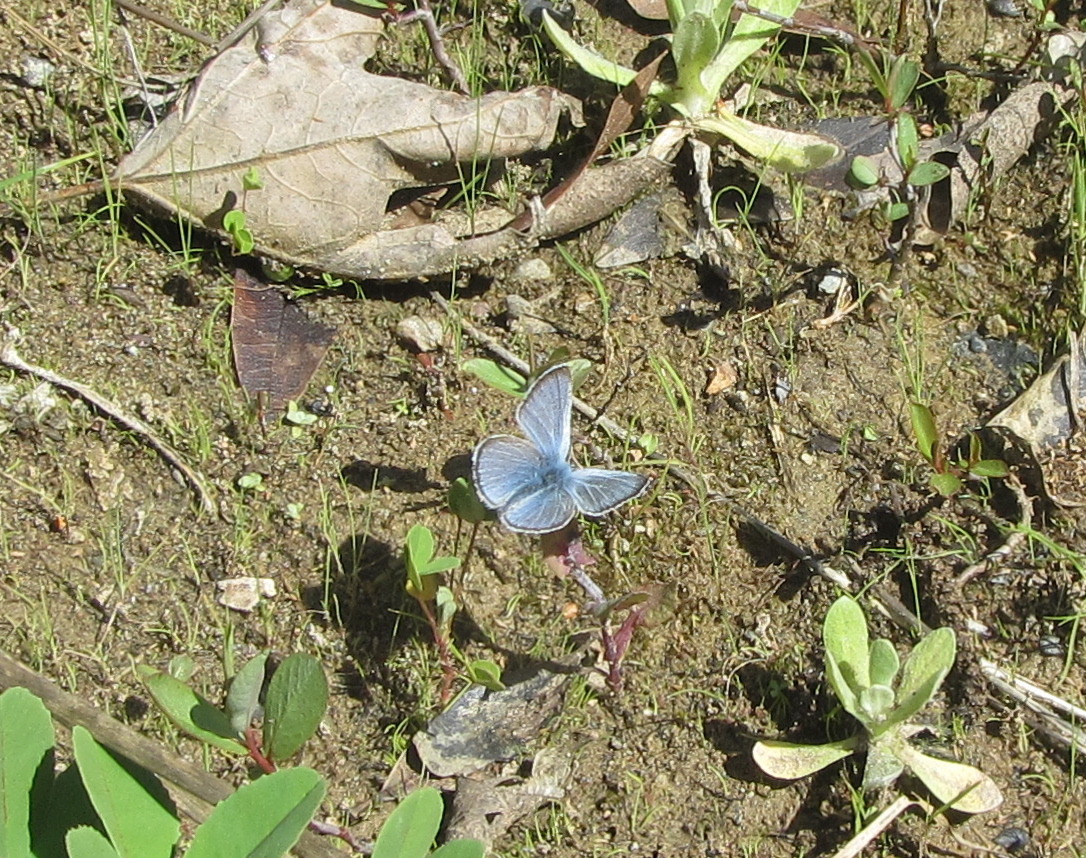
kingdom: Animalia
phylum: Arthropoda
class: Insecta
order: Lepidoptera
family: Lycaenidae
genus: Celastrina
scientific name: Celastrina ladon
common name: Spring azure
